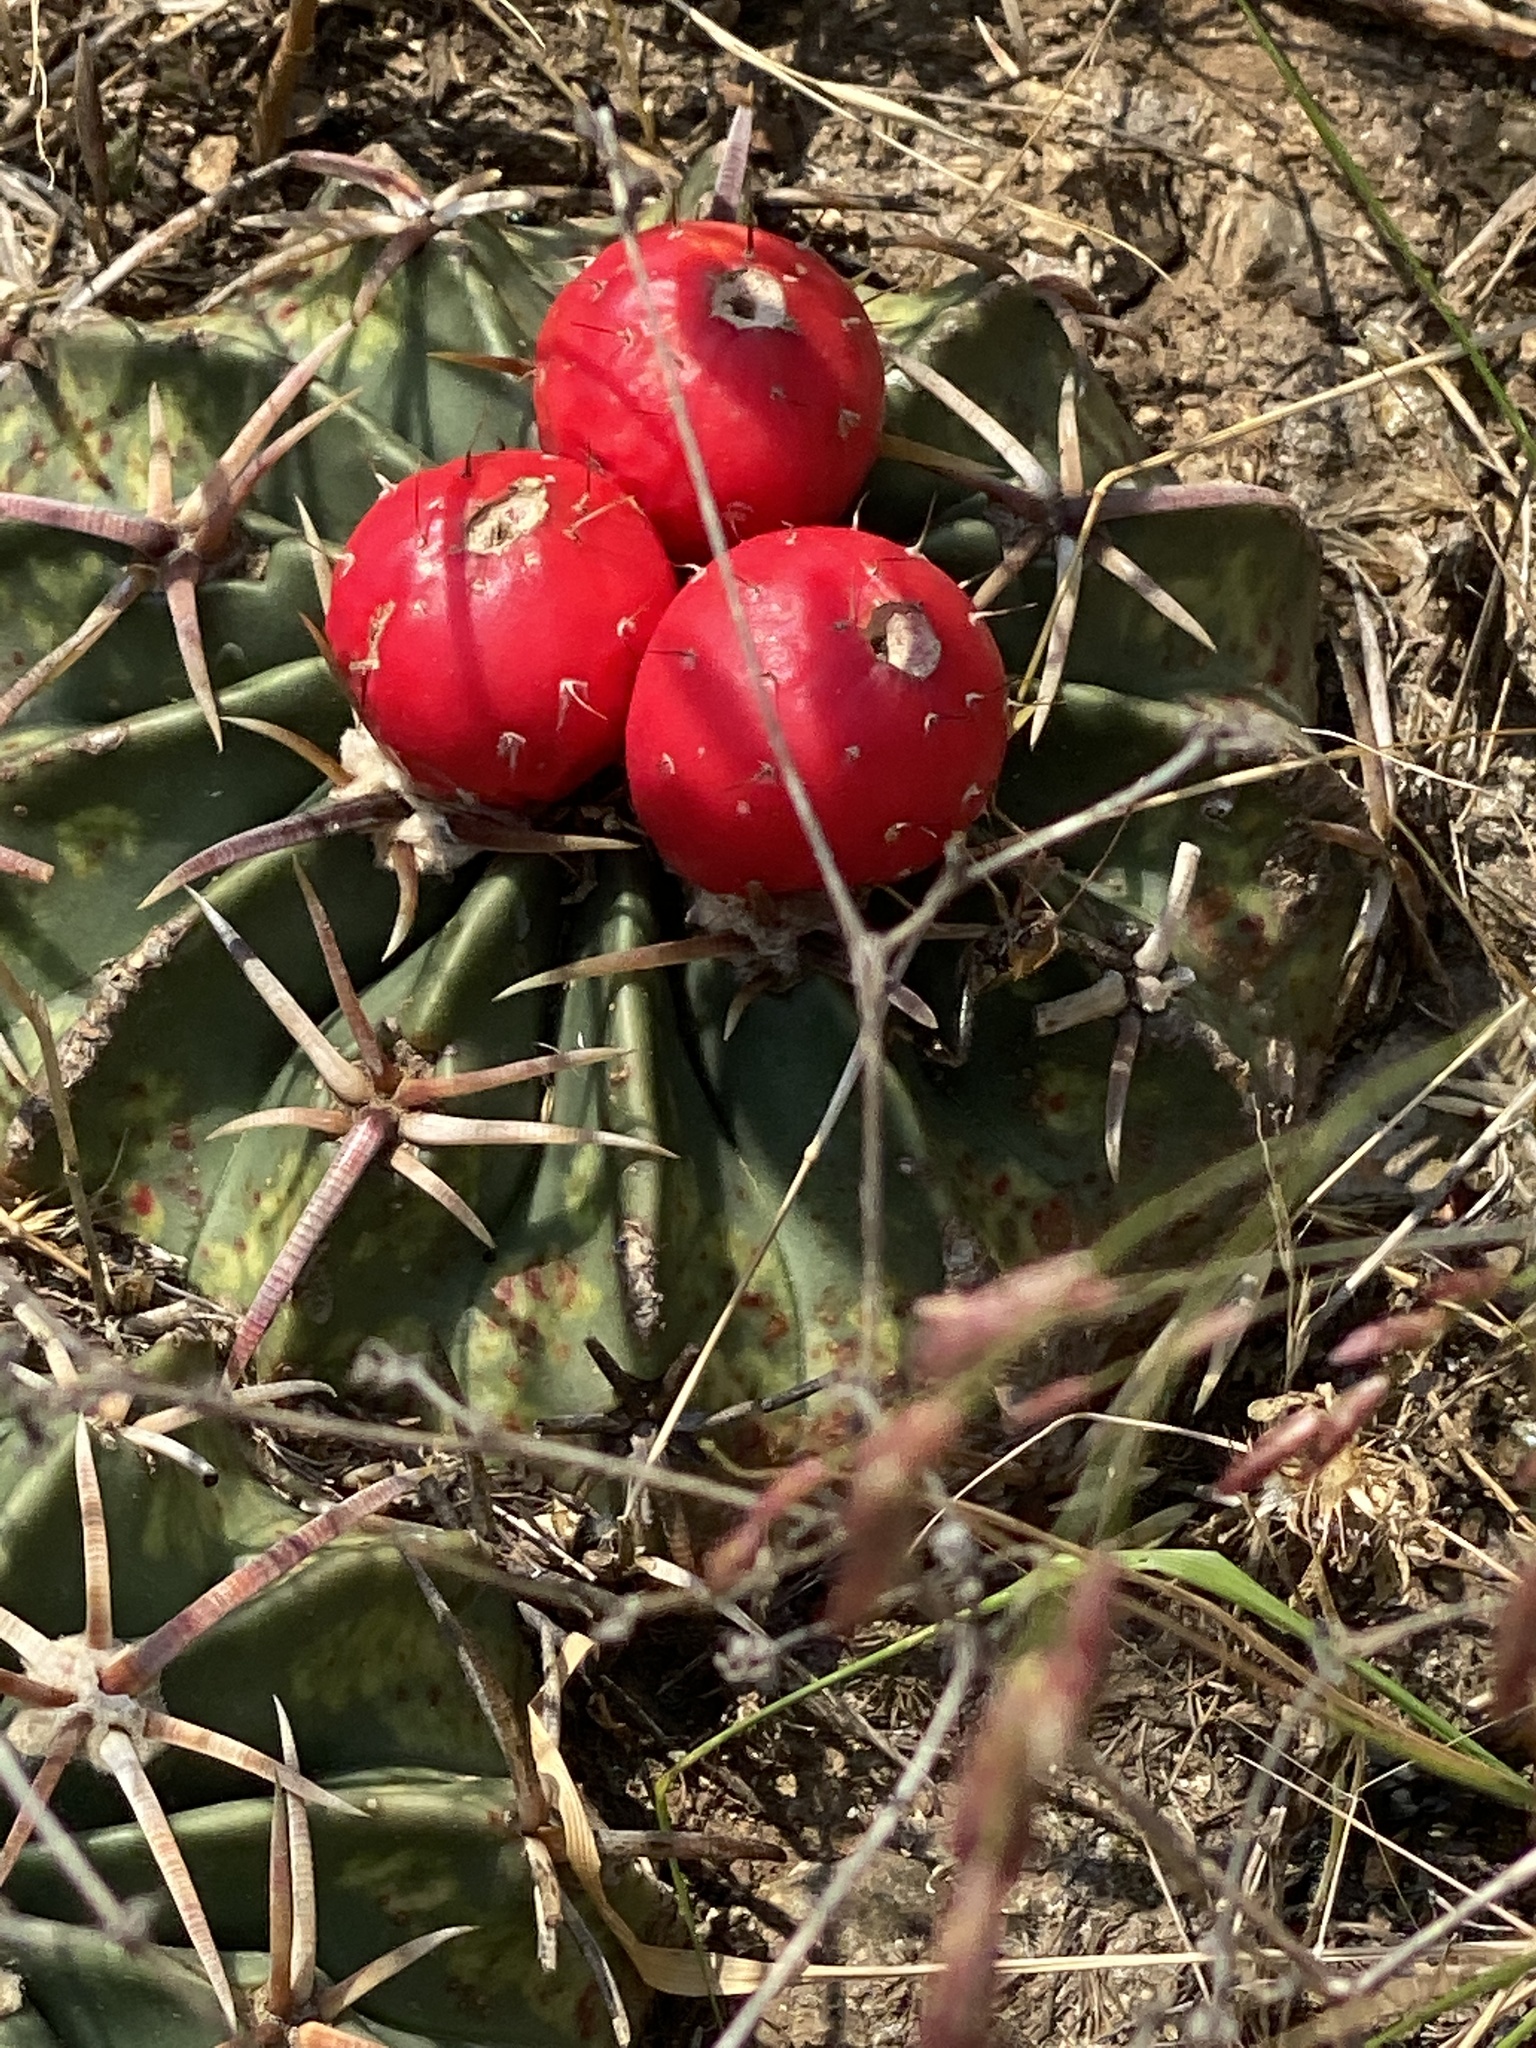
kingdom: Plantae
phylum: Tracheophyta
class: Magnoliopsida
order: Caryophyllales
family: Cactaceae
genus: Echinocactus
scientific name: Echinocactus texensis
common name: Devil's pincushion
